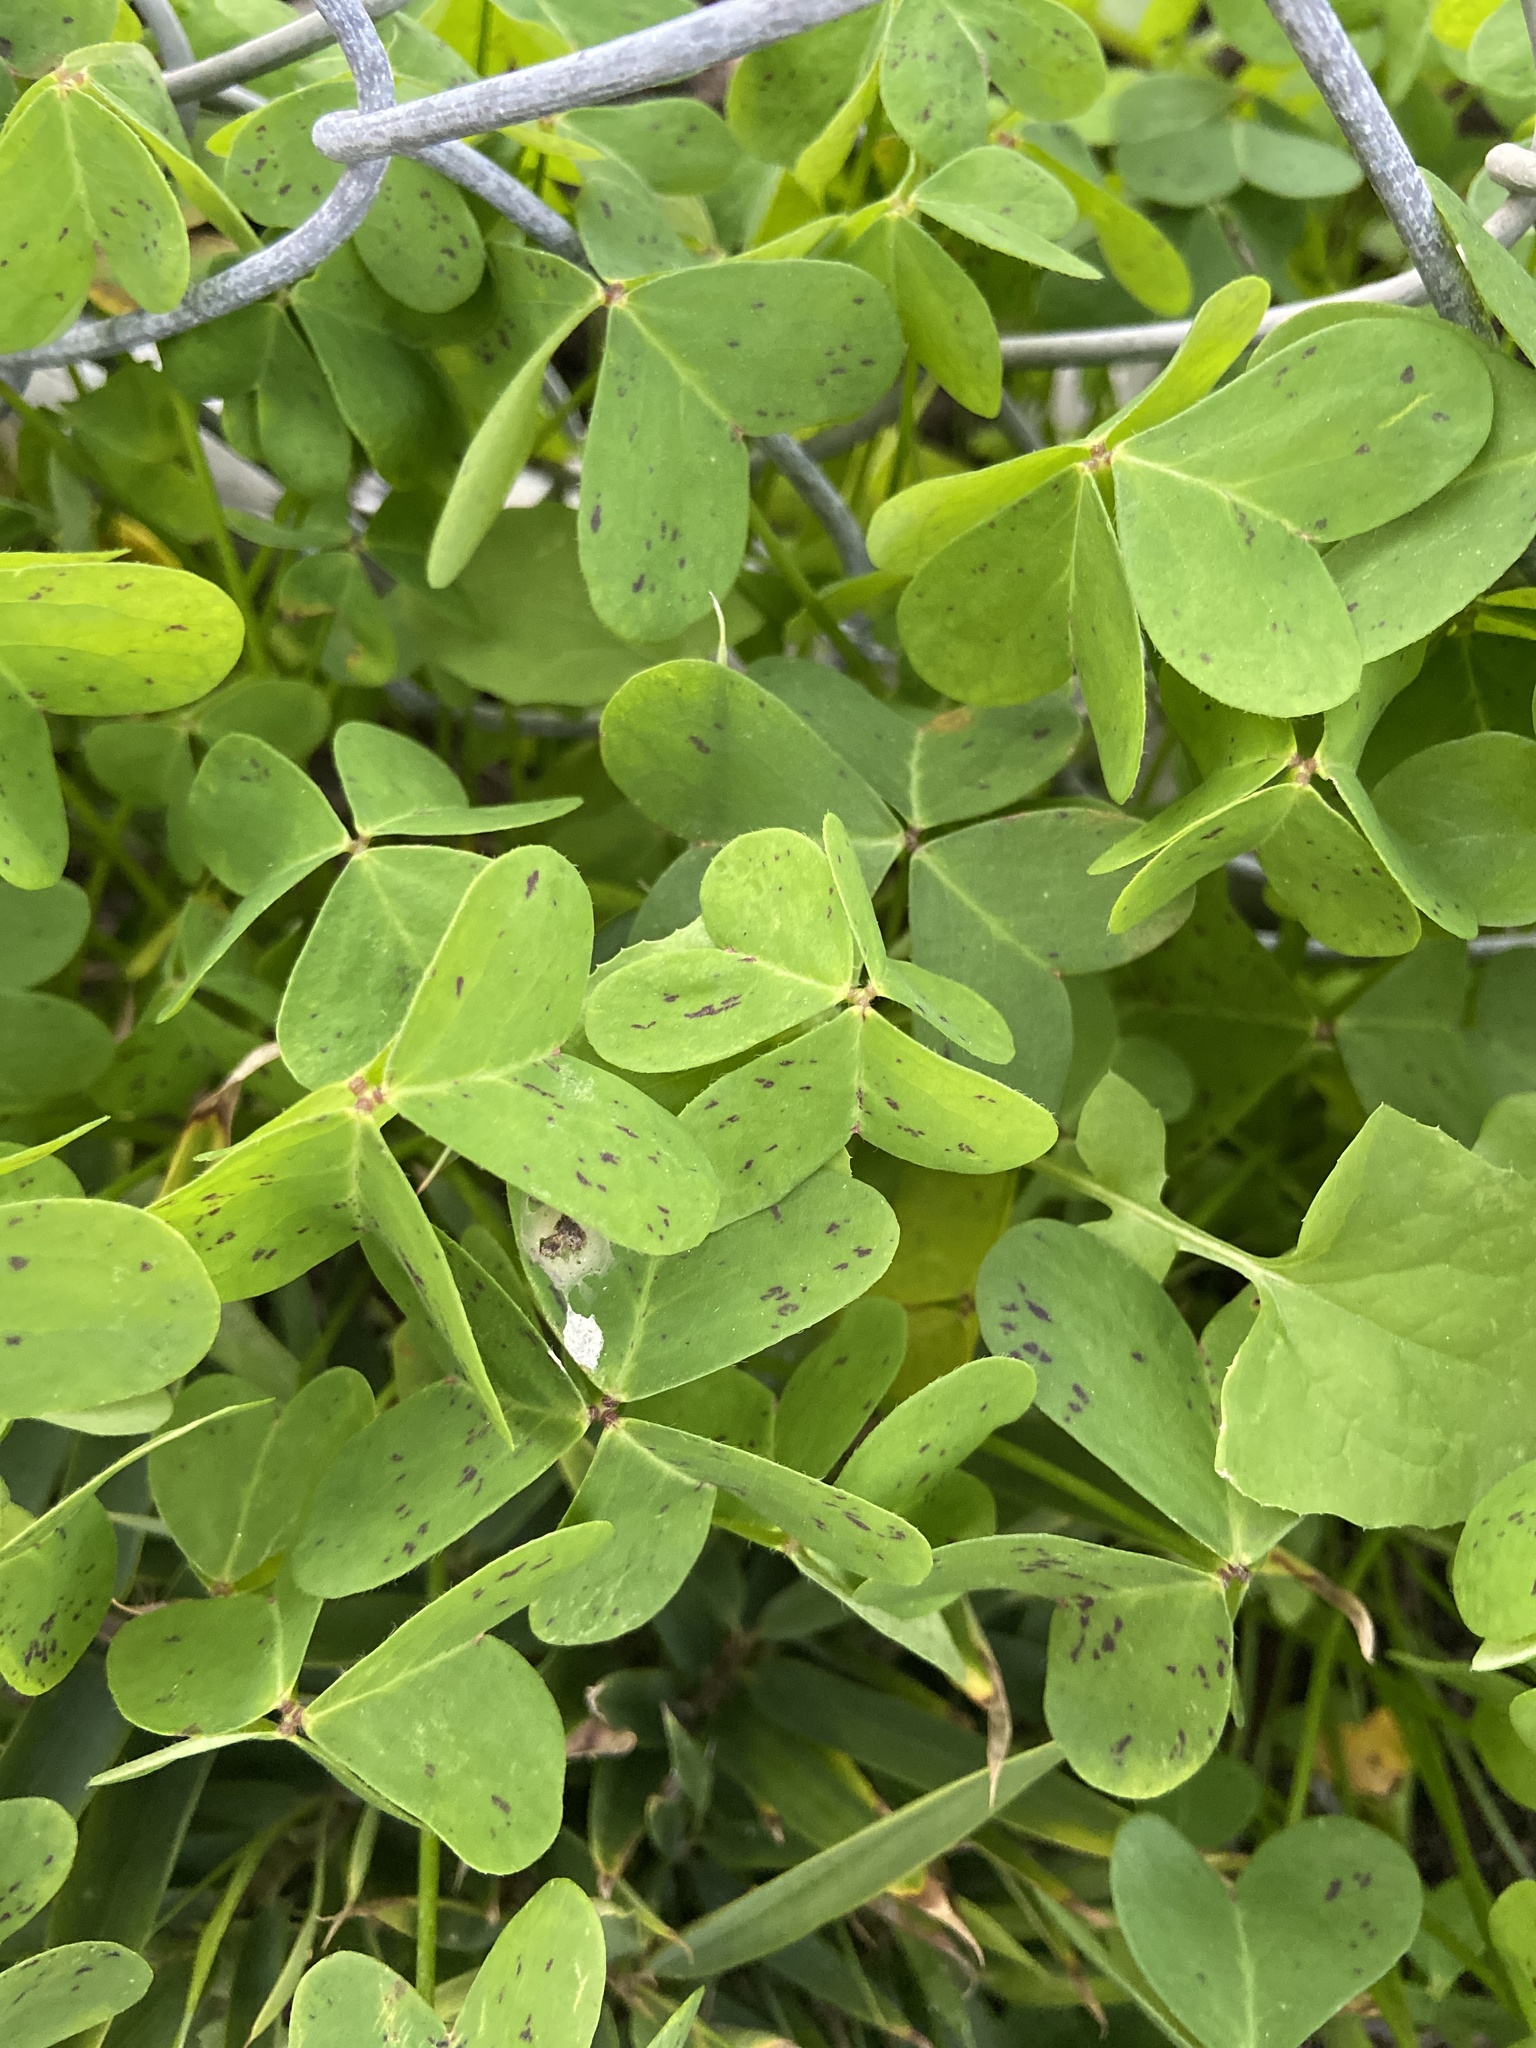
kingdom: Plantae
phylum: Tracheophyta
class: Magnoliopsida
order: Oxalidales
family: Oxalidaceae
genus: Oxalis
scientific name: Oxalis pes-caprae
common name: Bermuda-buttercup
